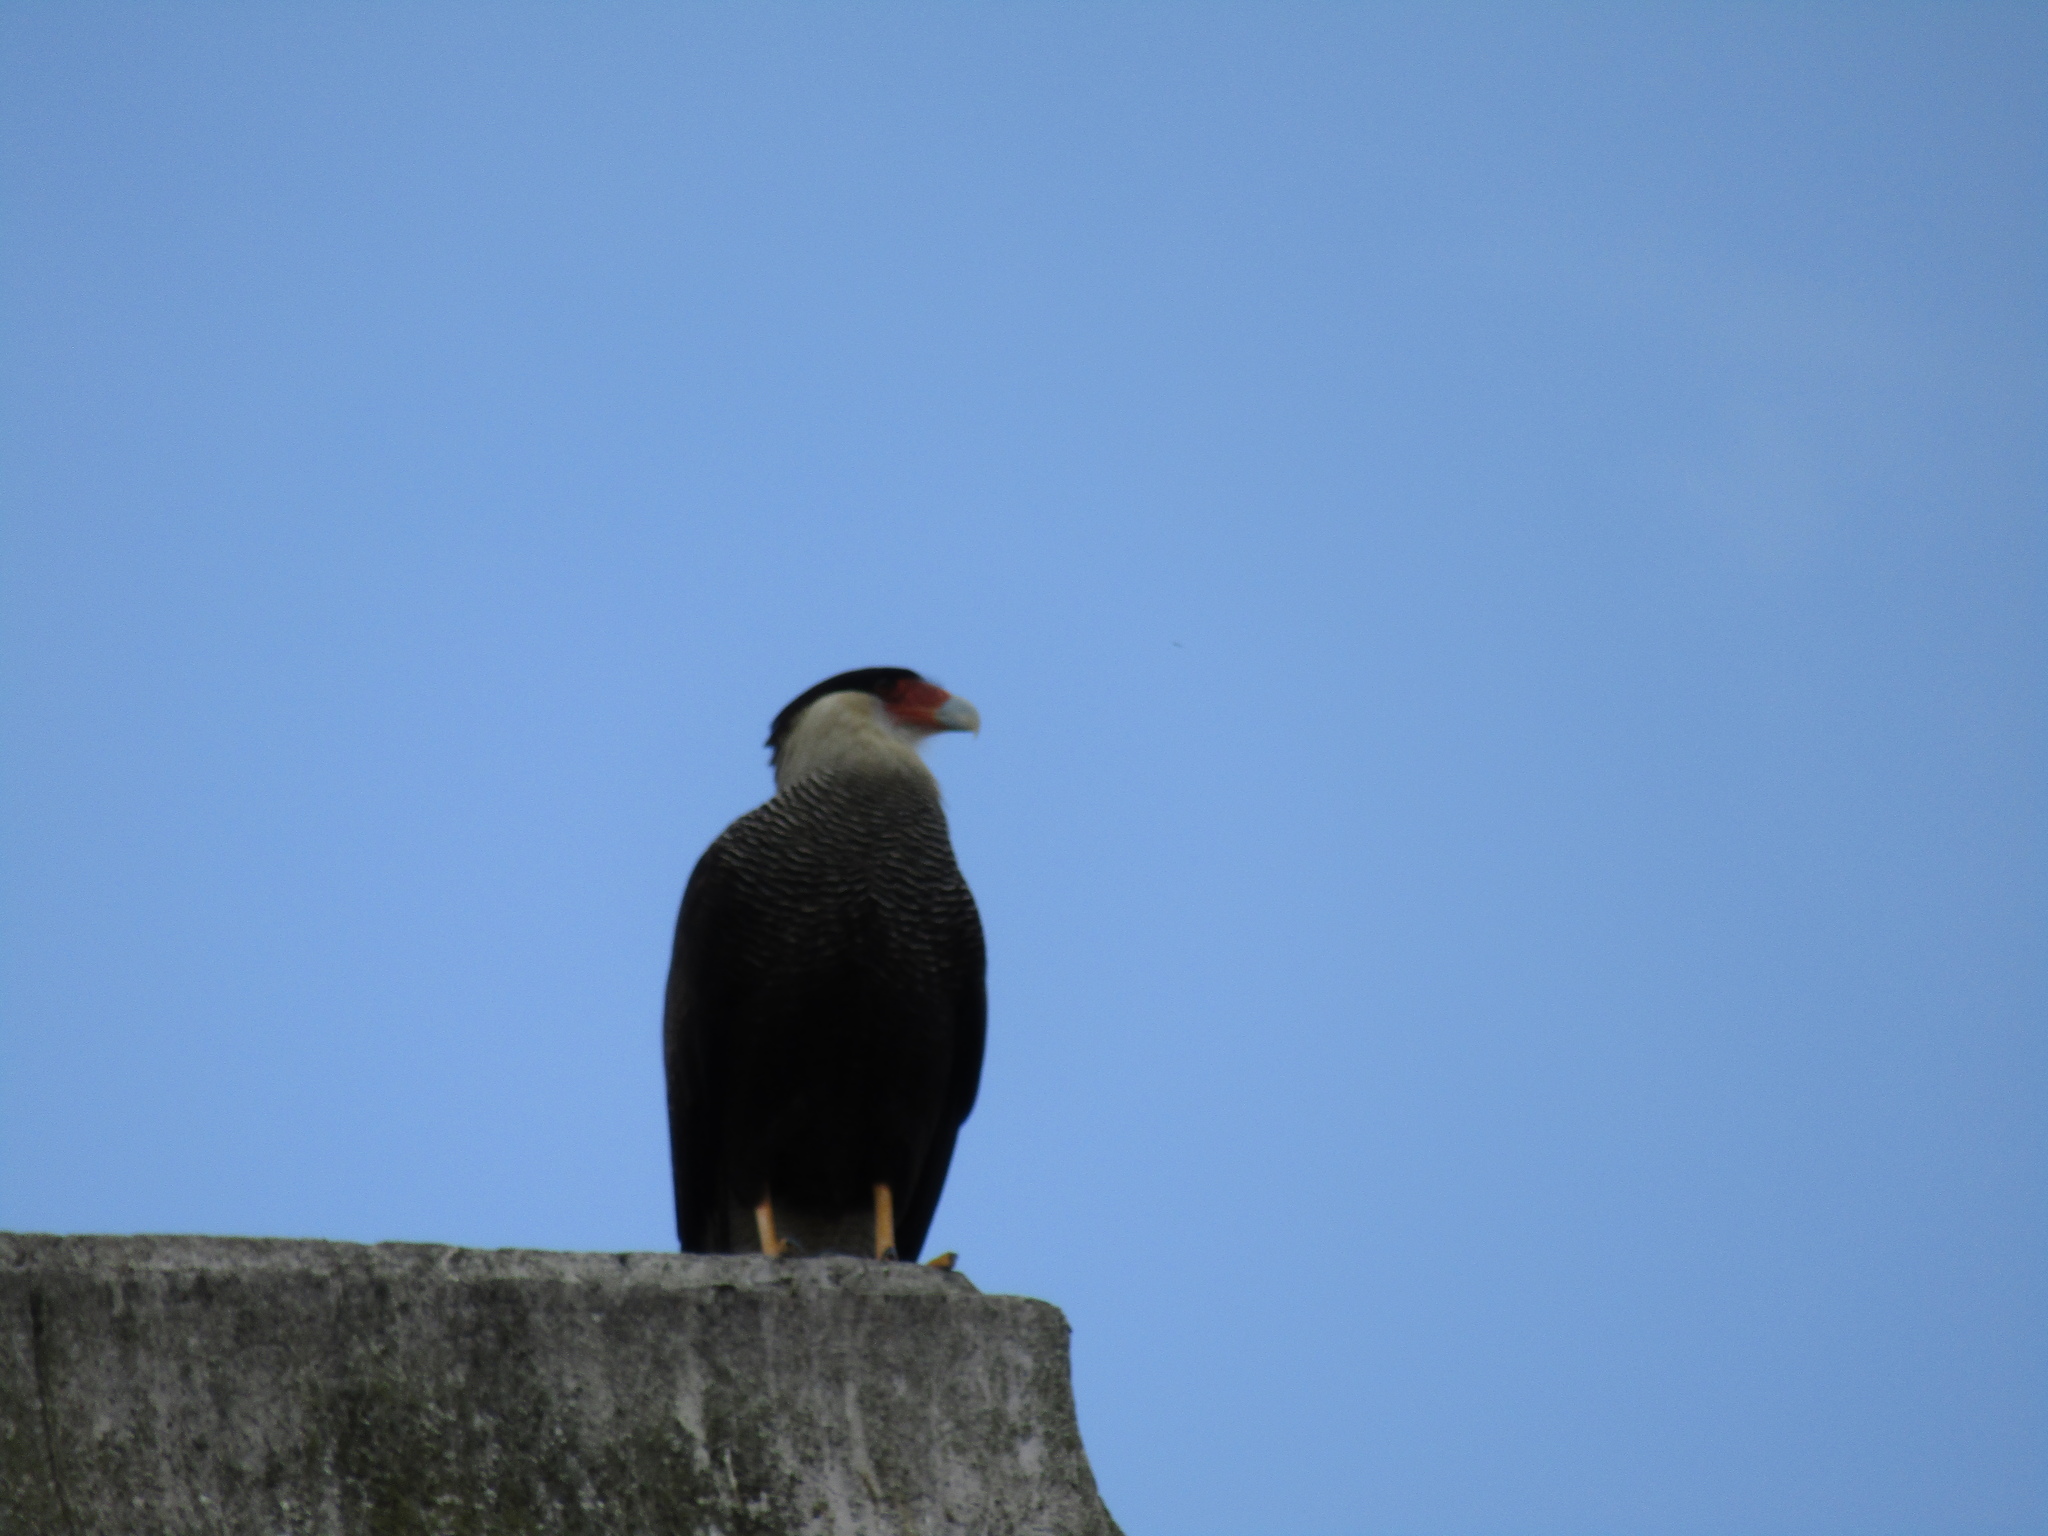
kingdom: Animalia
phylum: Chordata
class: Aves
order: Falconiformes
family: Falconidae
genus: Caracara
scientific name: Caracara plancus
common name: Southern caracara
